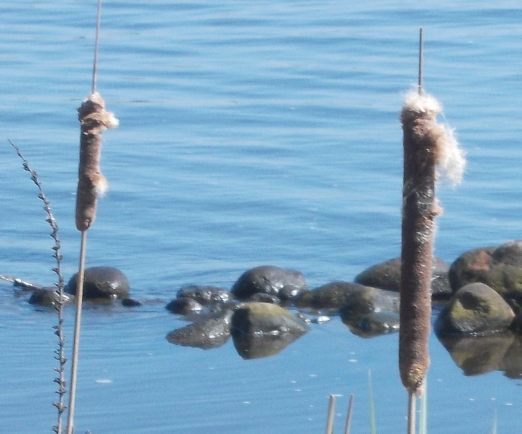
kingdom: Plantae
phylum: Tracheophyta
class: Liliopsida
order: Poales
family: Typhaceae
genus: Typha
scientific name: Typha latifolia
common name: Broadleaf cattail
